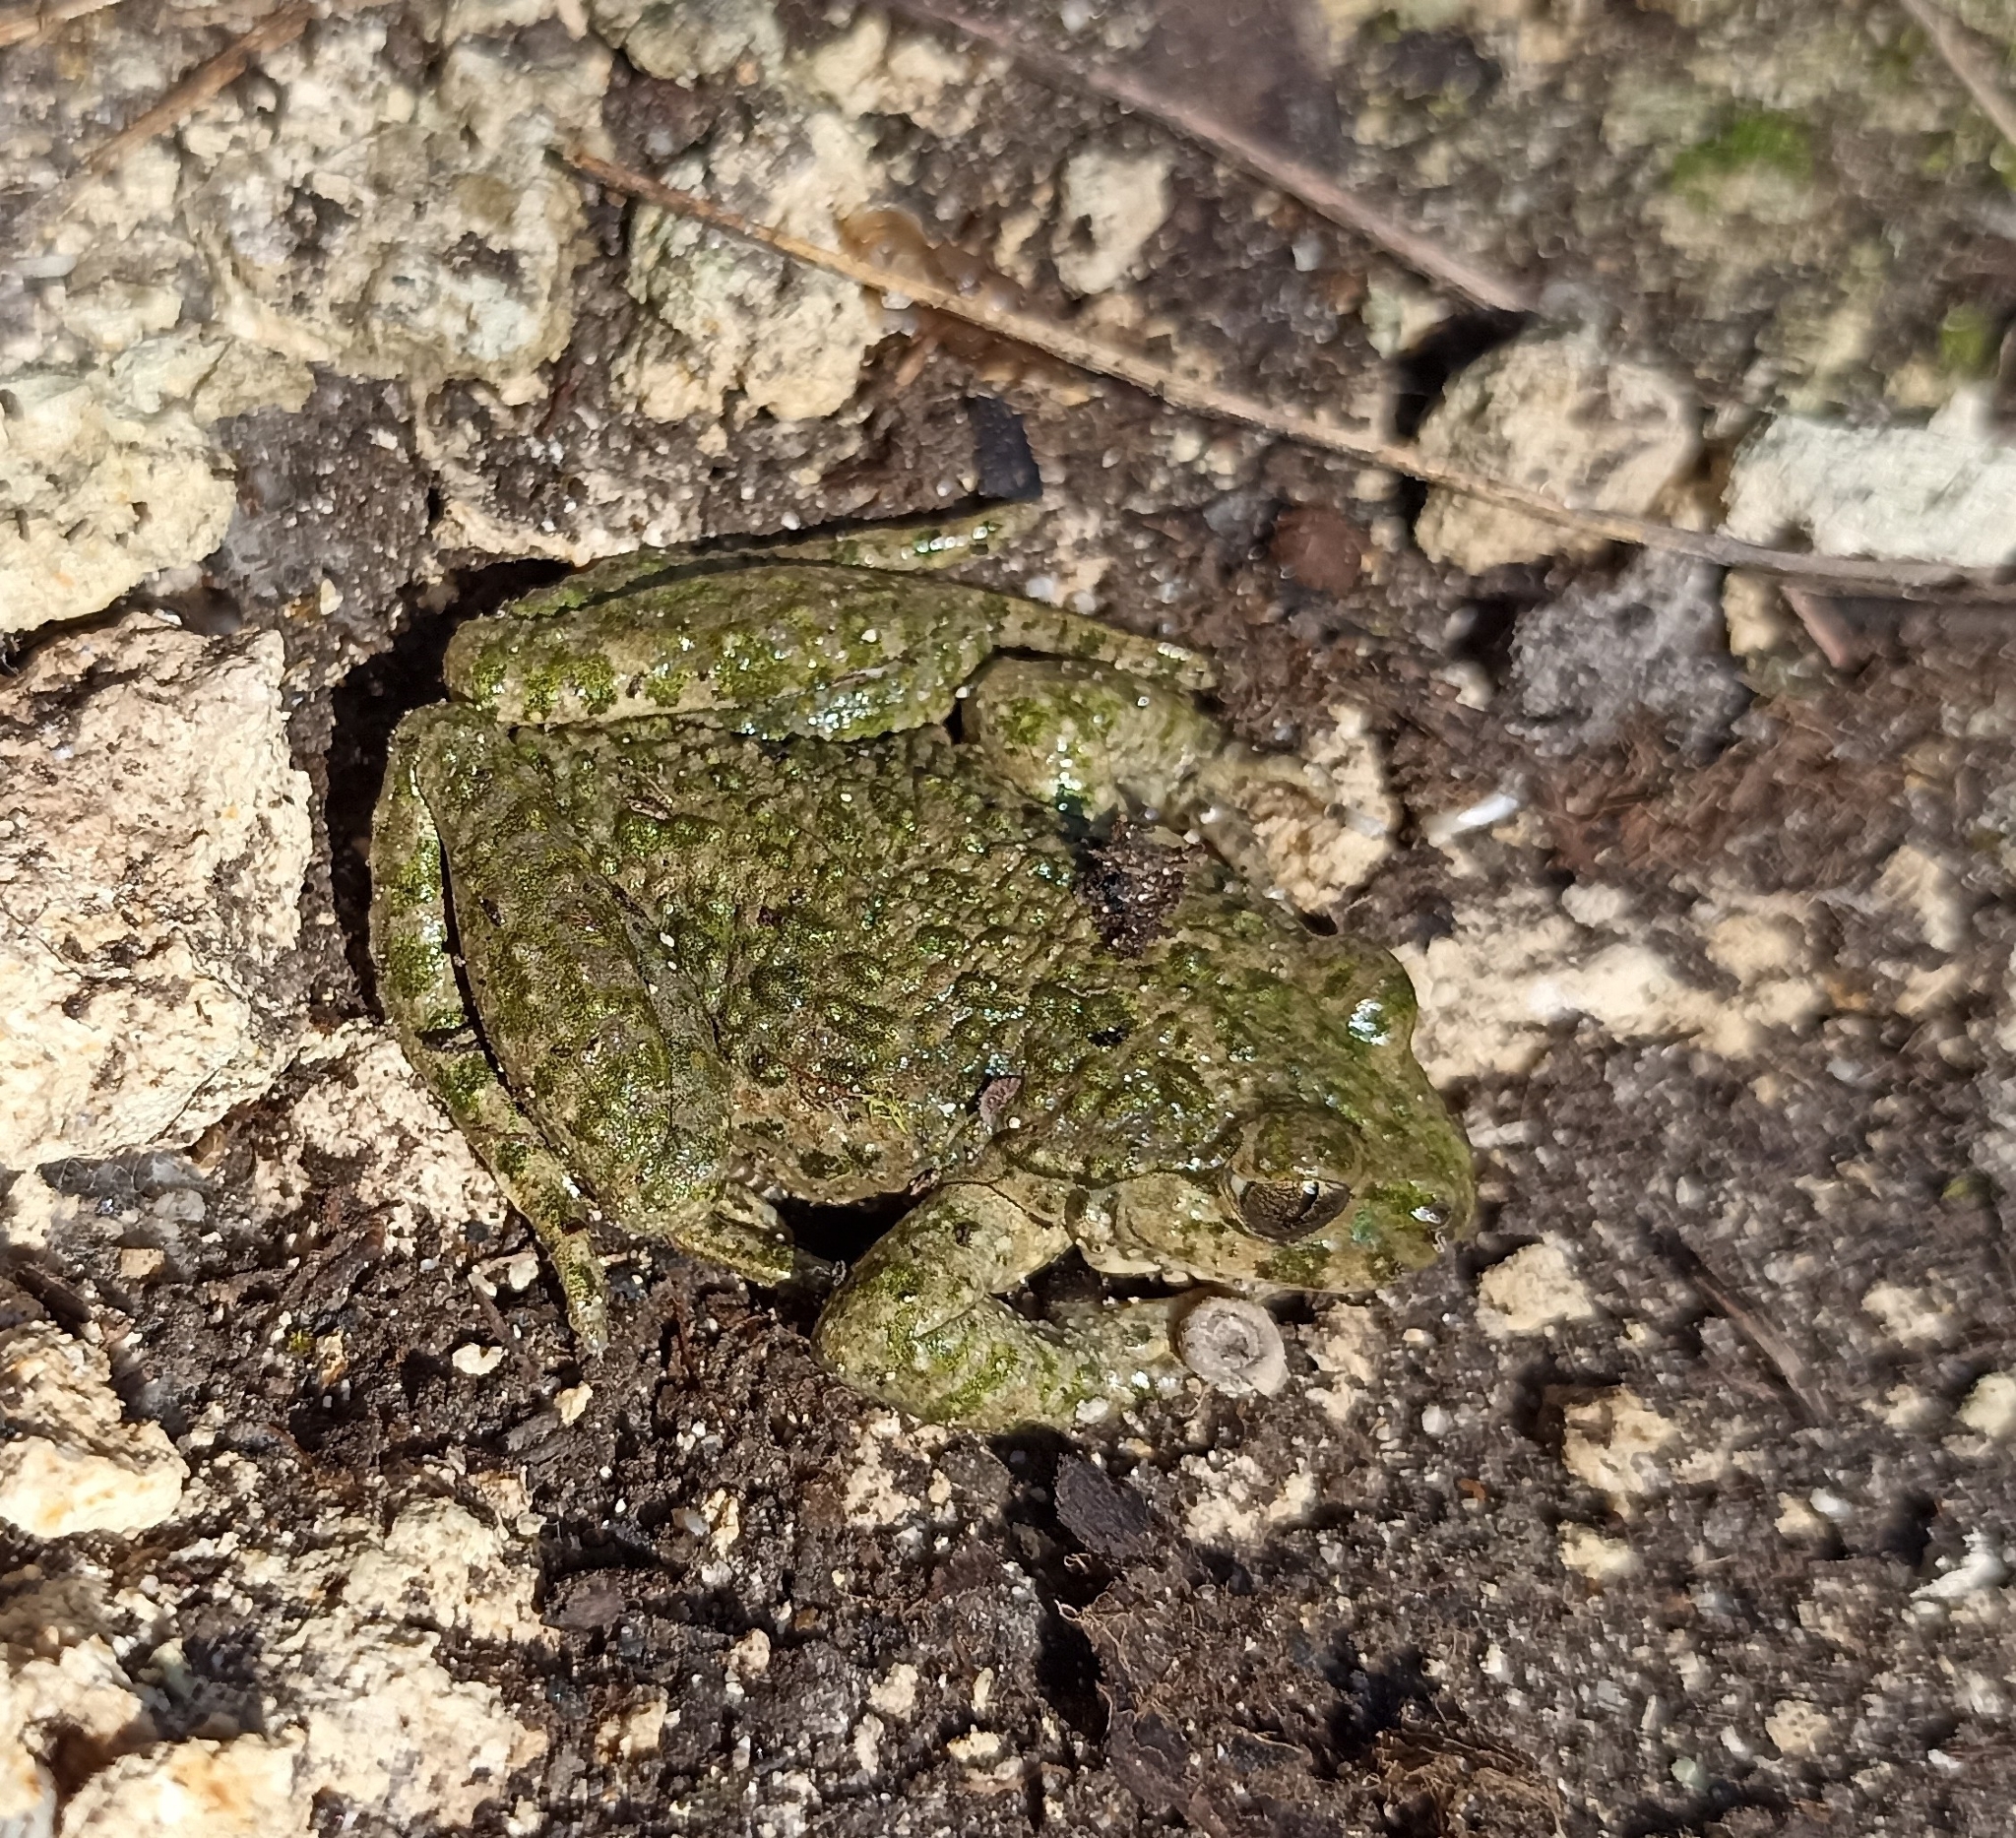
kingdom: Animalia
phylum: Chordata
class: Amphibia
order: Anura
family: Pelodytidae
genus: Pelodytes
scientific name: Pelodytes punctatus
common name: Parsley frog
